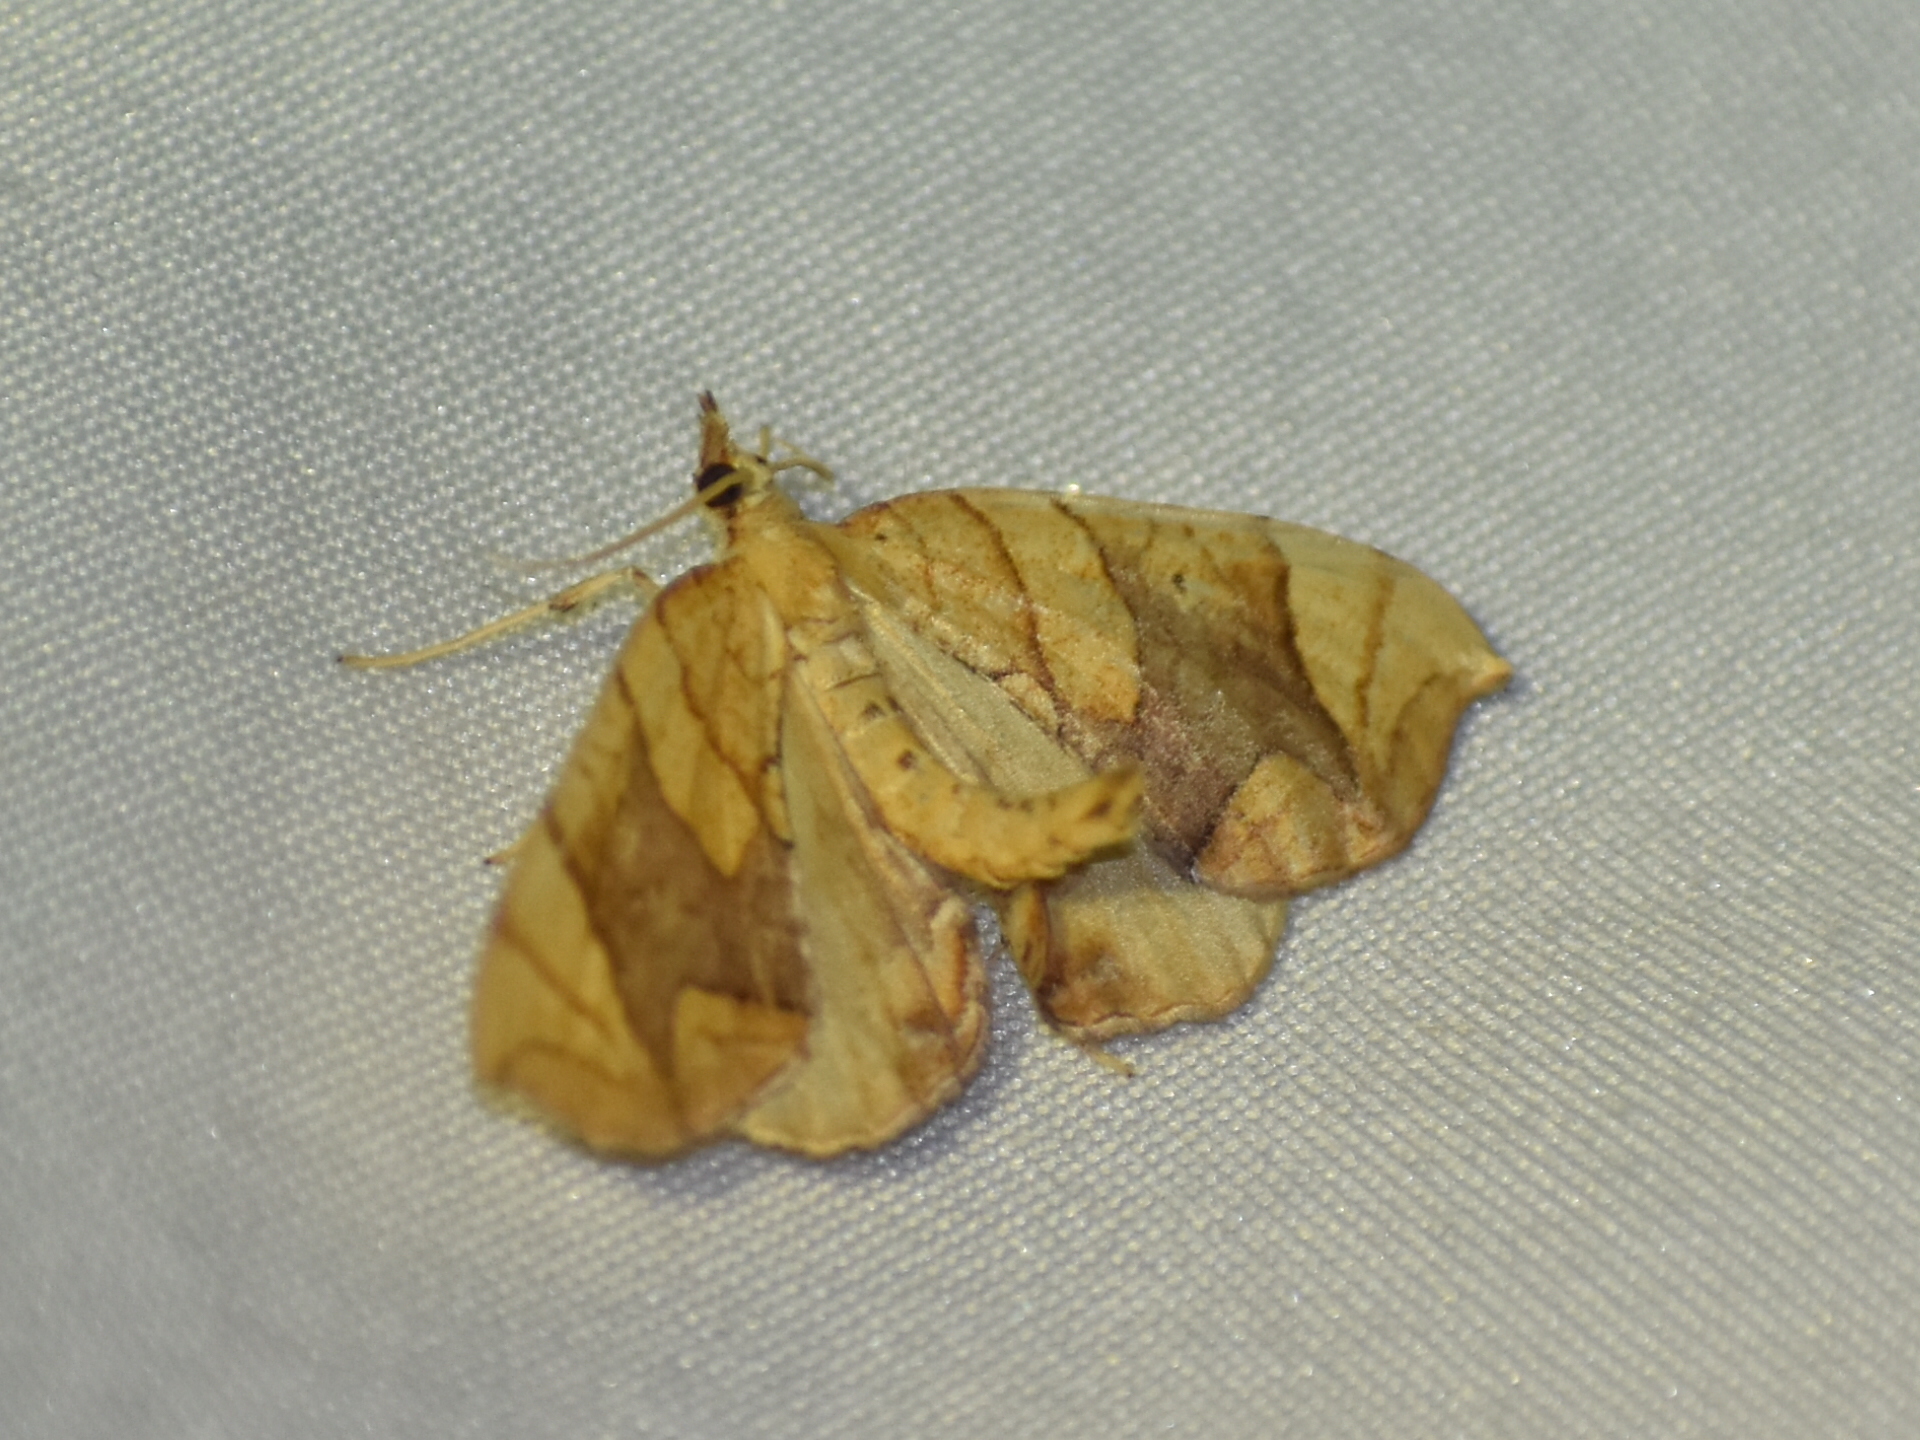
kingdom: Animalia
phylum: Arthropoda
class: Insecta
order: Lepidoptera
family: Geometridae
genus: Eulithis
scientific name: Eulithis
